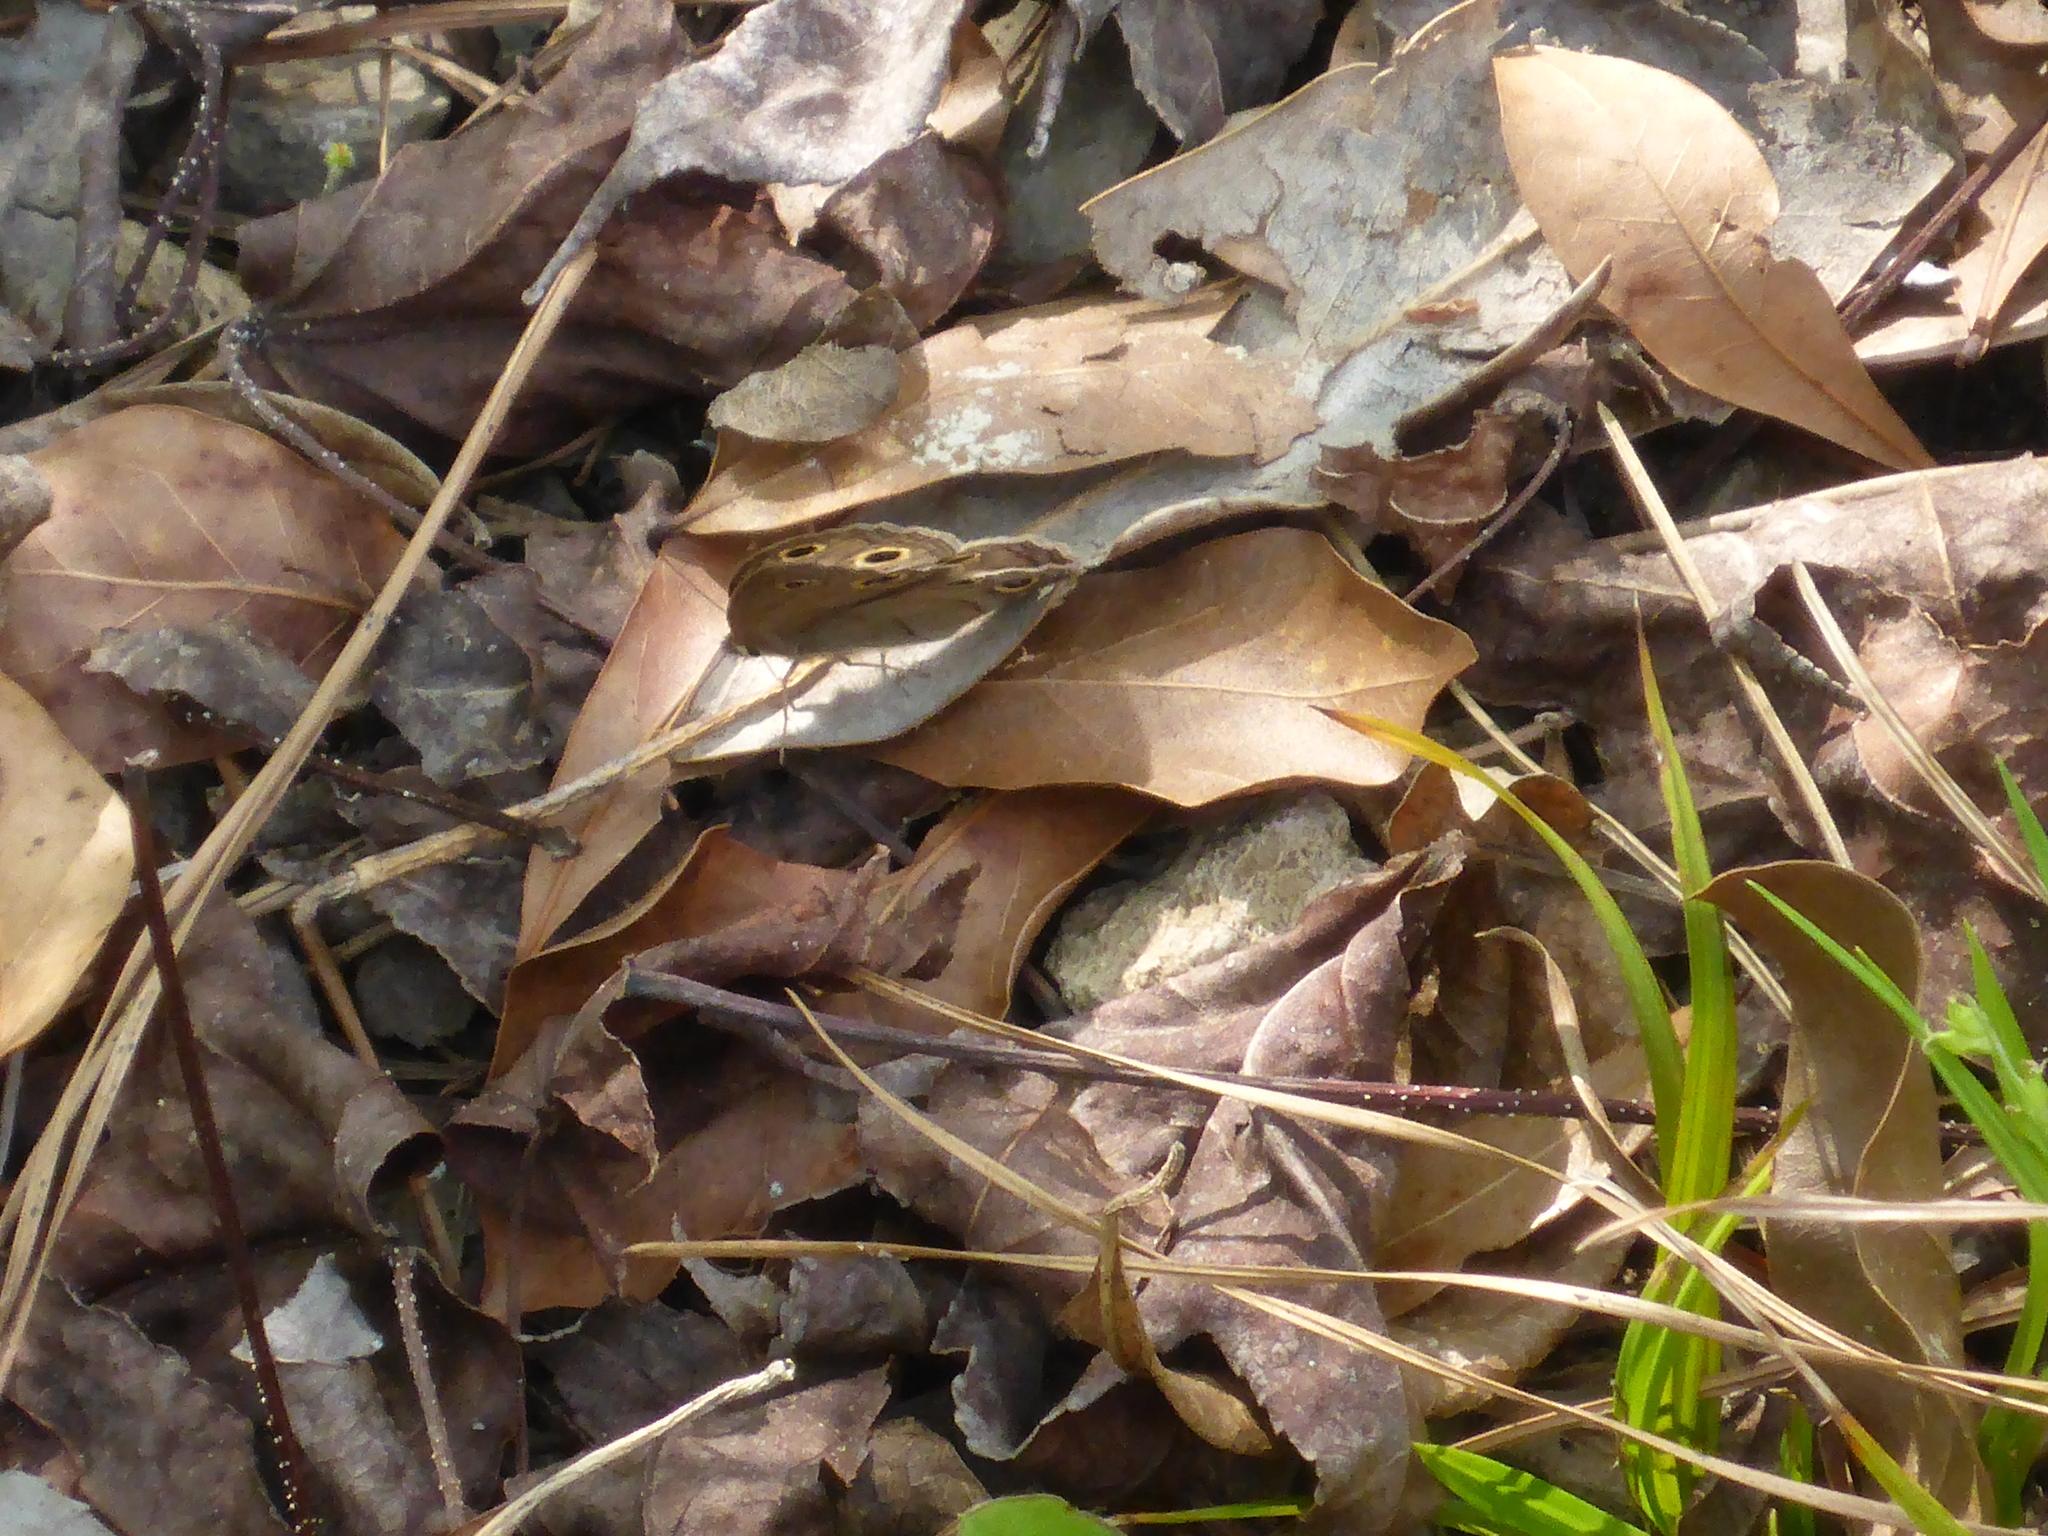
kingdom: Animalia
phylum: Arthropoda
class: Insecta
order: Lepidoptera
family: Nymphalidae
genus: Euptychia
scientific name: Euptychia cymela
